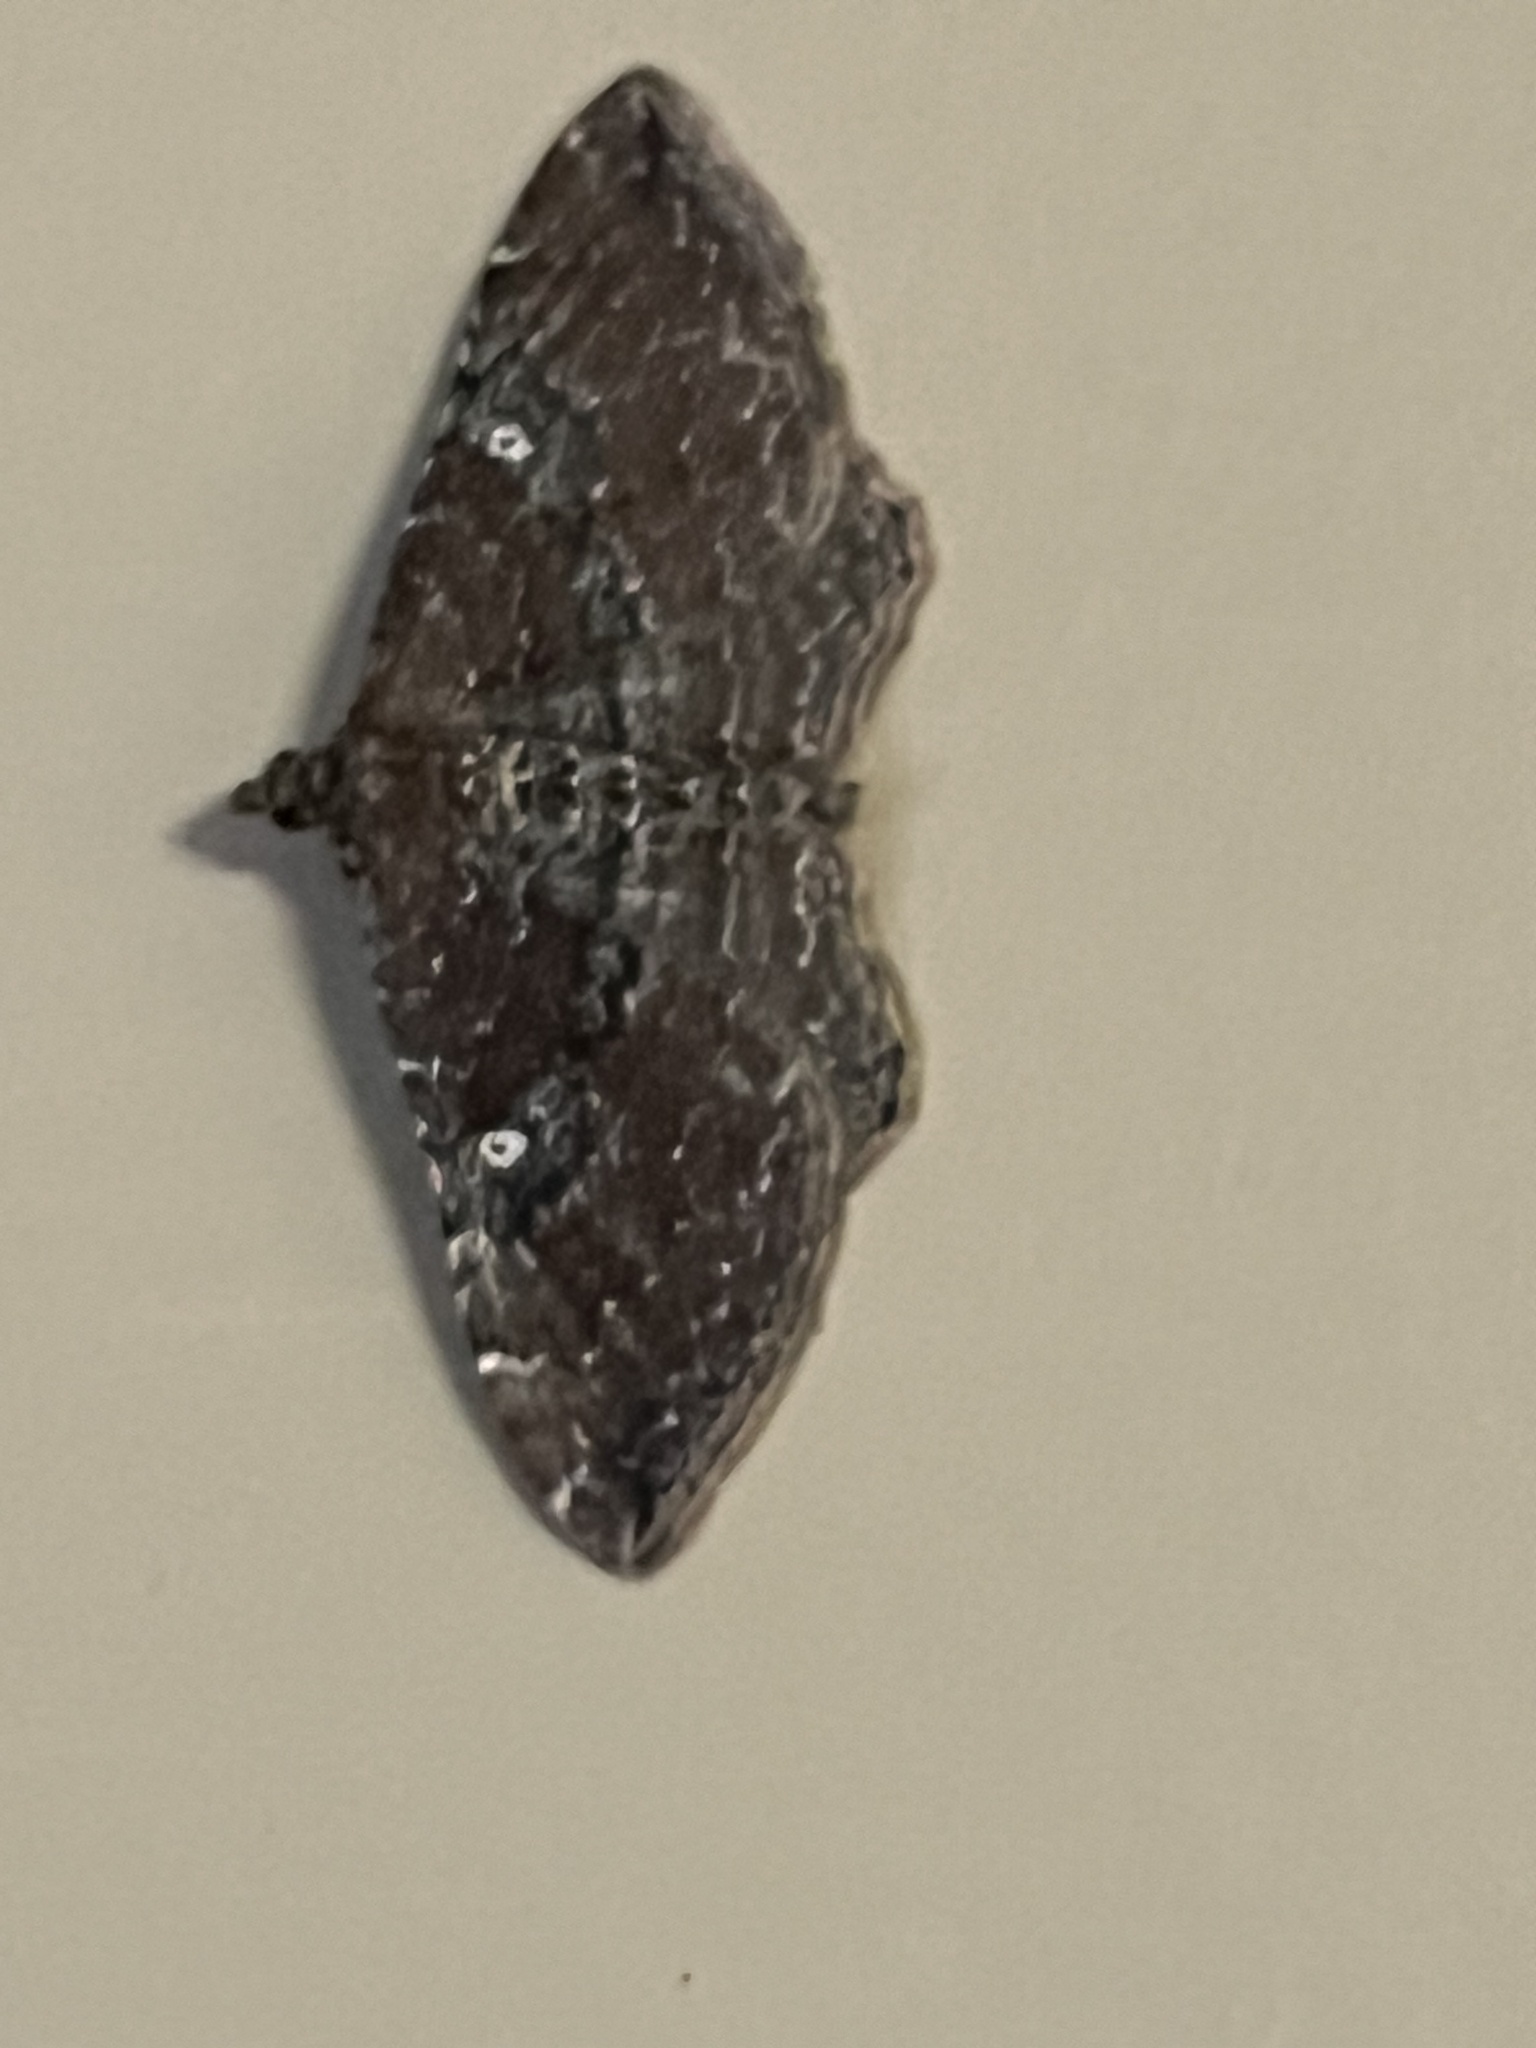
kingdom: Animalia
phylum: Arthropoda
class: Insecta
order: Lepidoptera
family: Geometridae
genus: Orthonama
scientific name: Orthonama obstipata
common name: The gem
